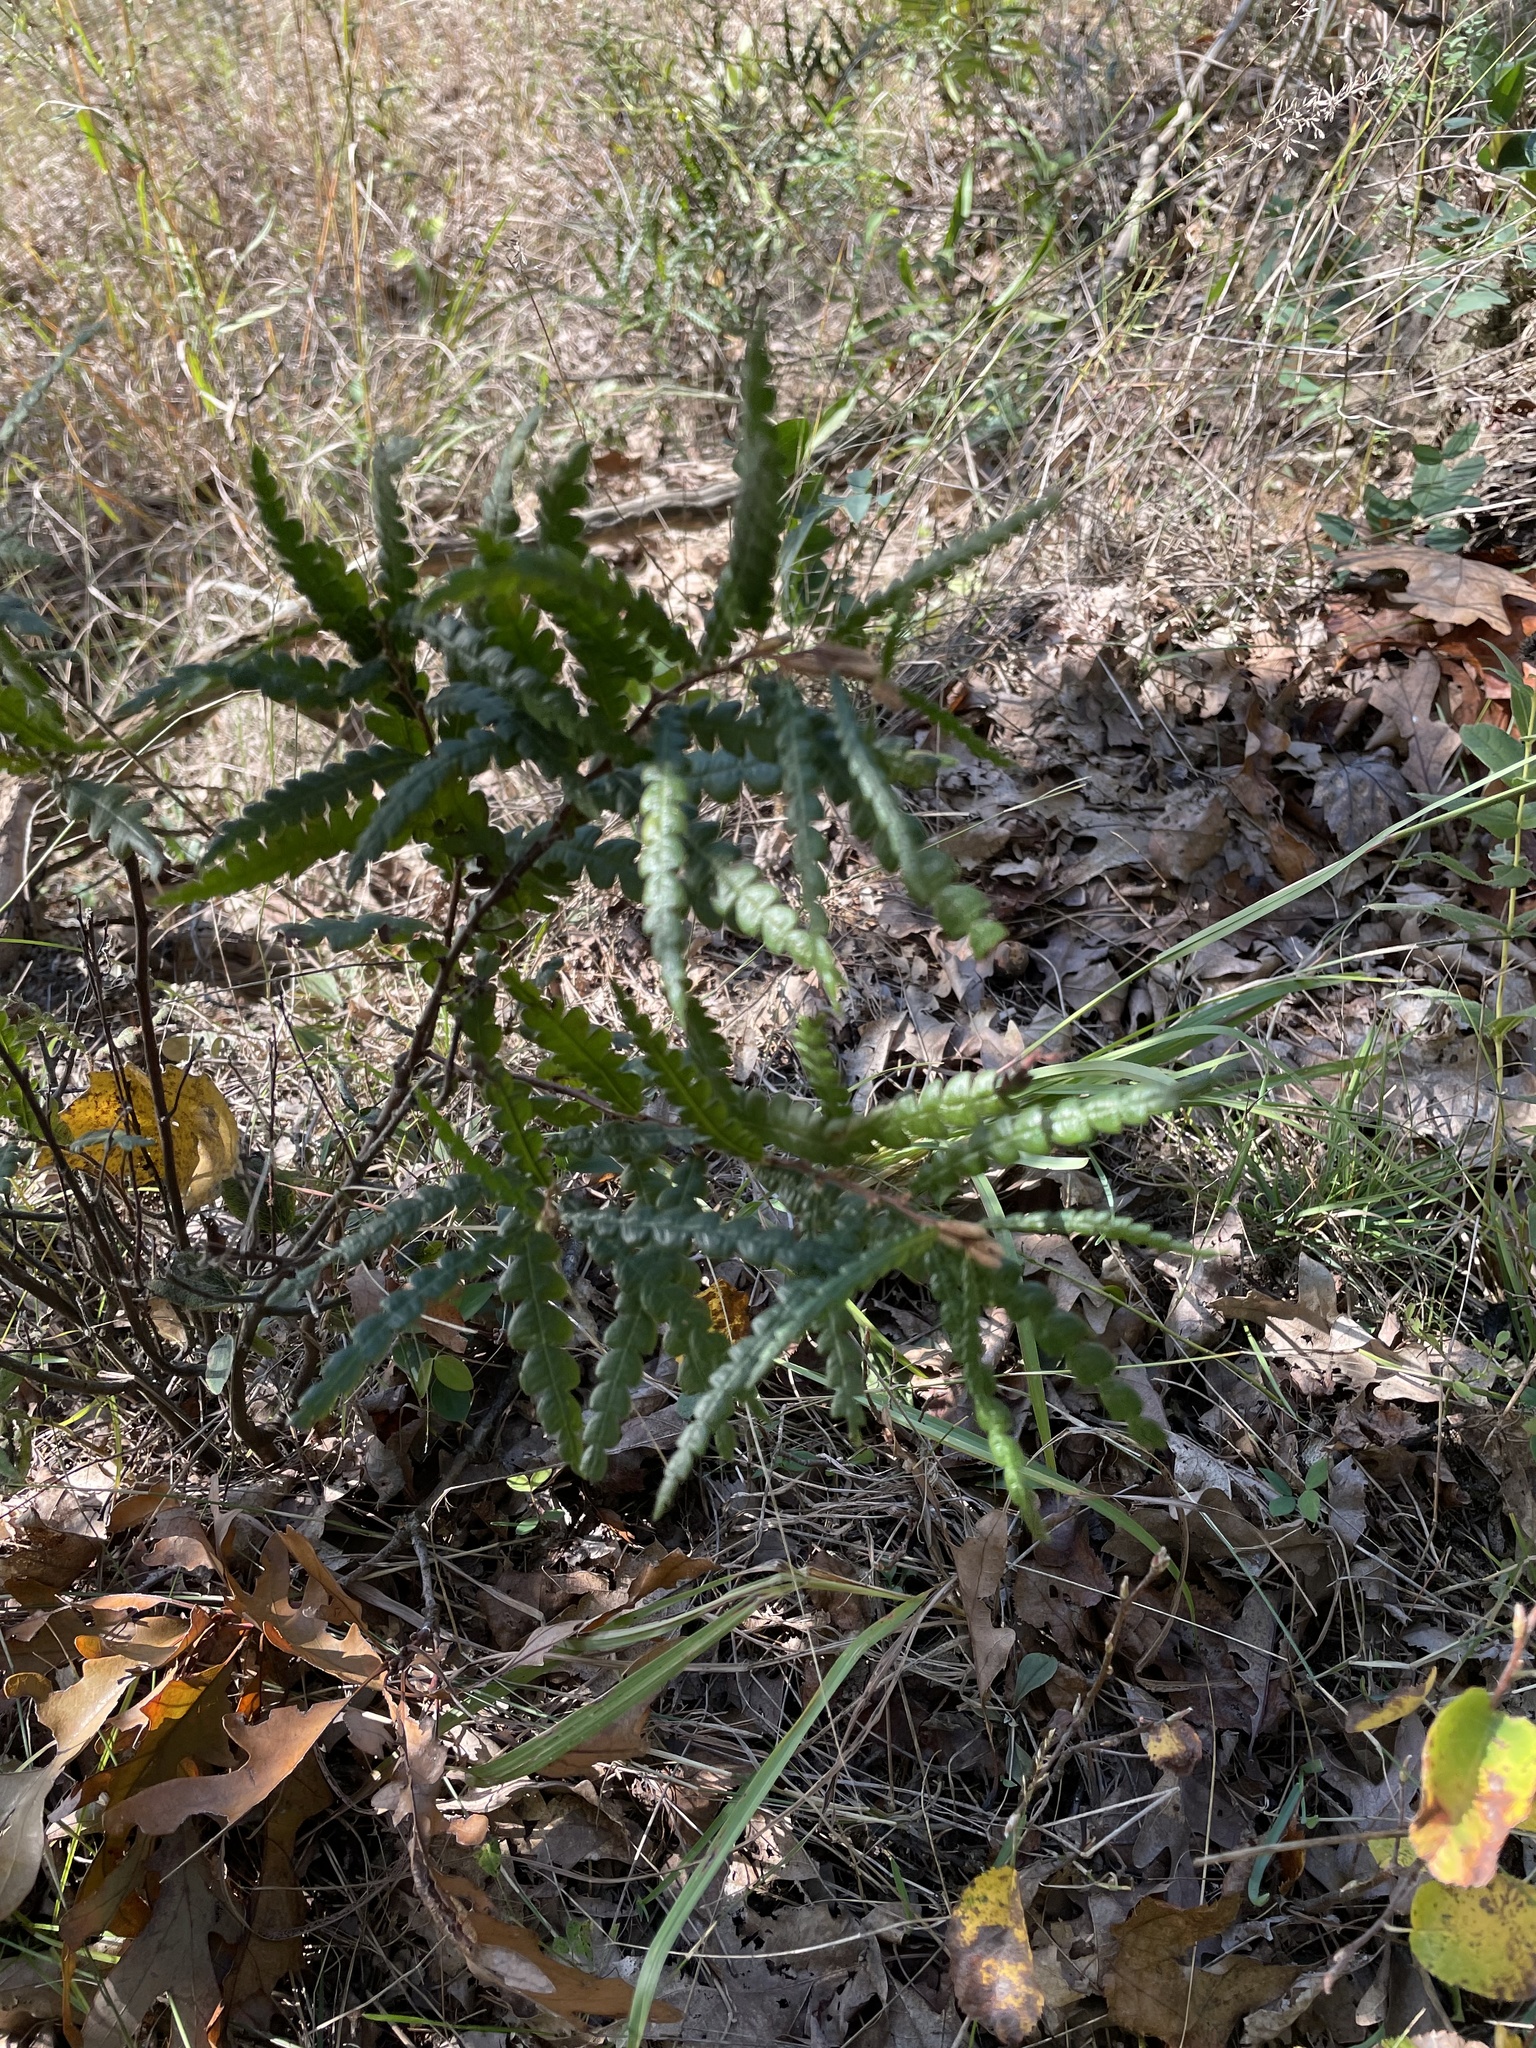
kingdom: Plantae
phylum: Tracheophyta
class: Magnoliopsida
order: Fagales
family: Myricaceae
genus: Comptonia
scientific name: Comptonia peregrina
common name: Sweet-fern
